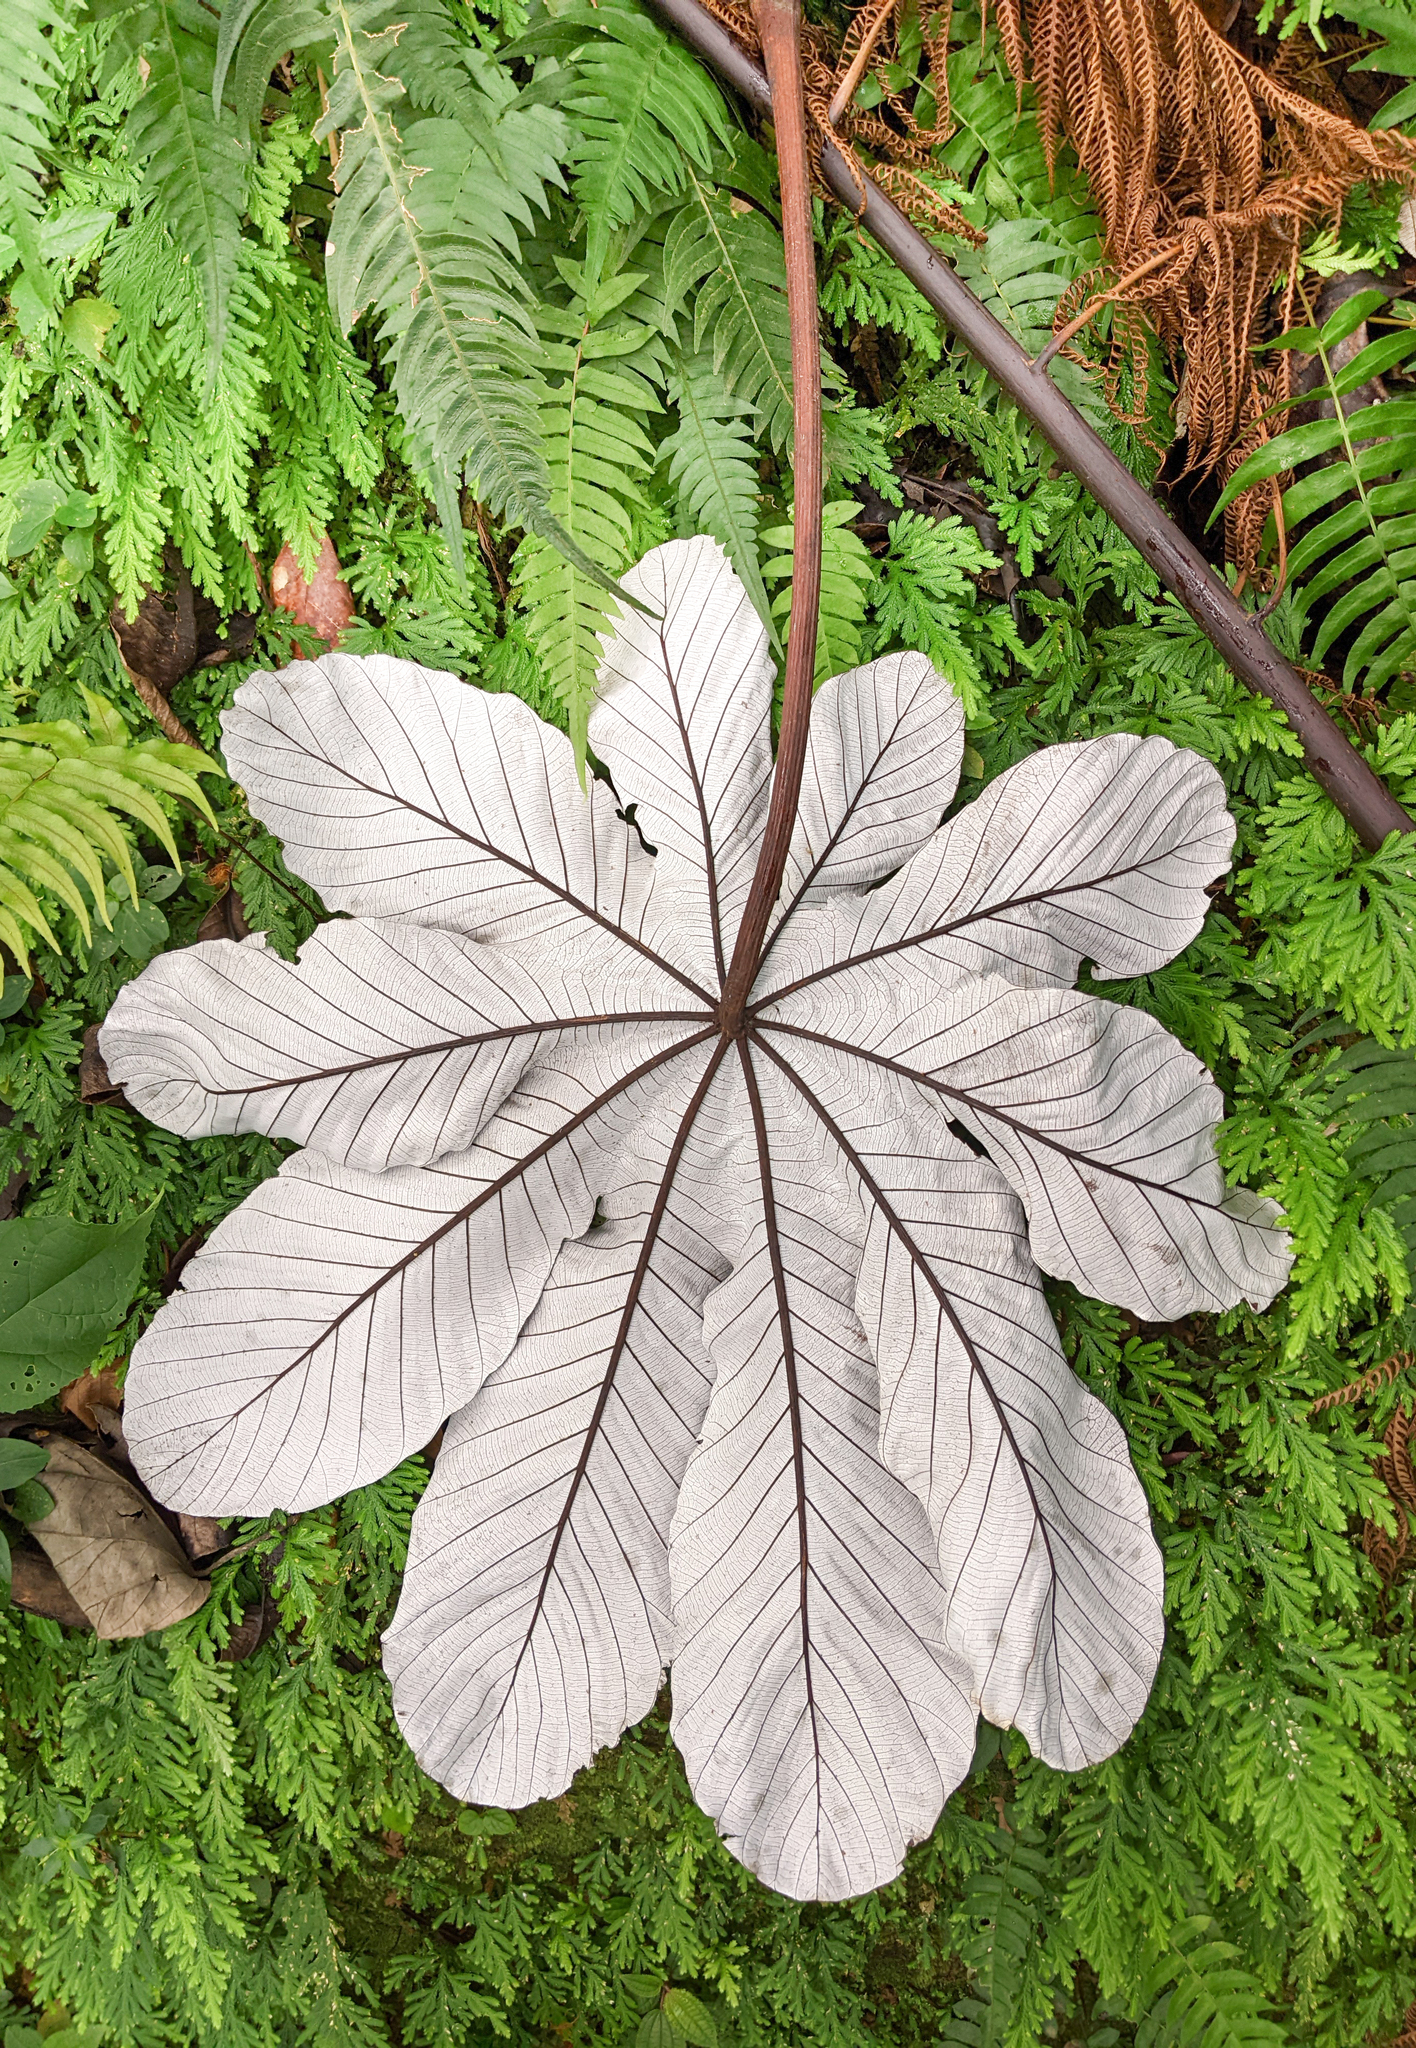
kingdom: Plantae
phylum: Tracheophyta
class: Magnoliopsida
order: Rosales
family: Urticaceae
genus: Cecropia
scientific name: Cecropia schreberiana
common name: Trumpet tree
